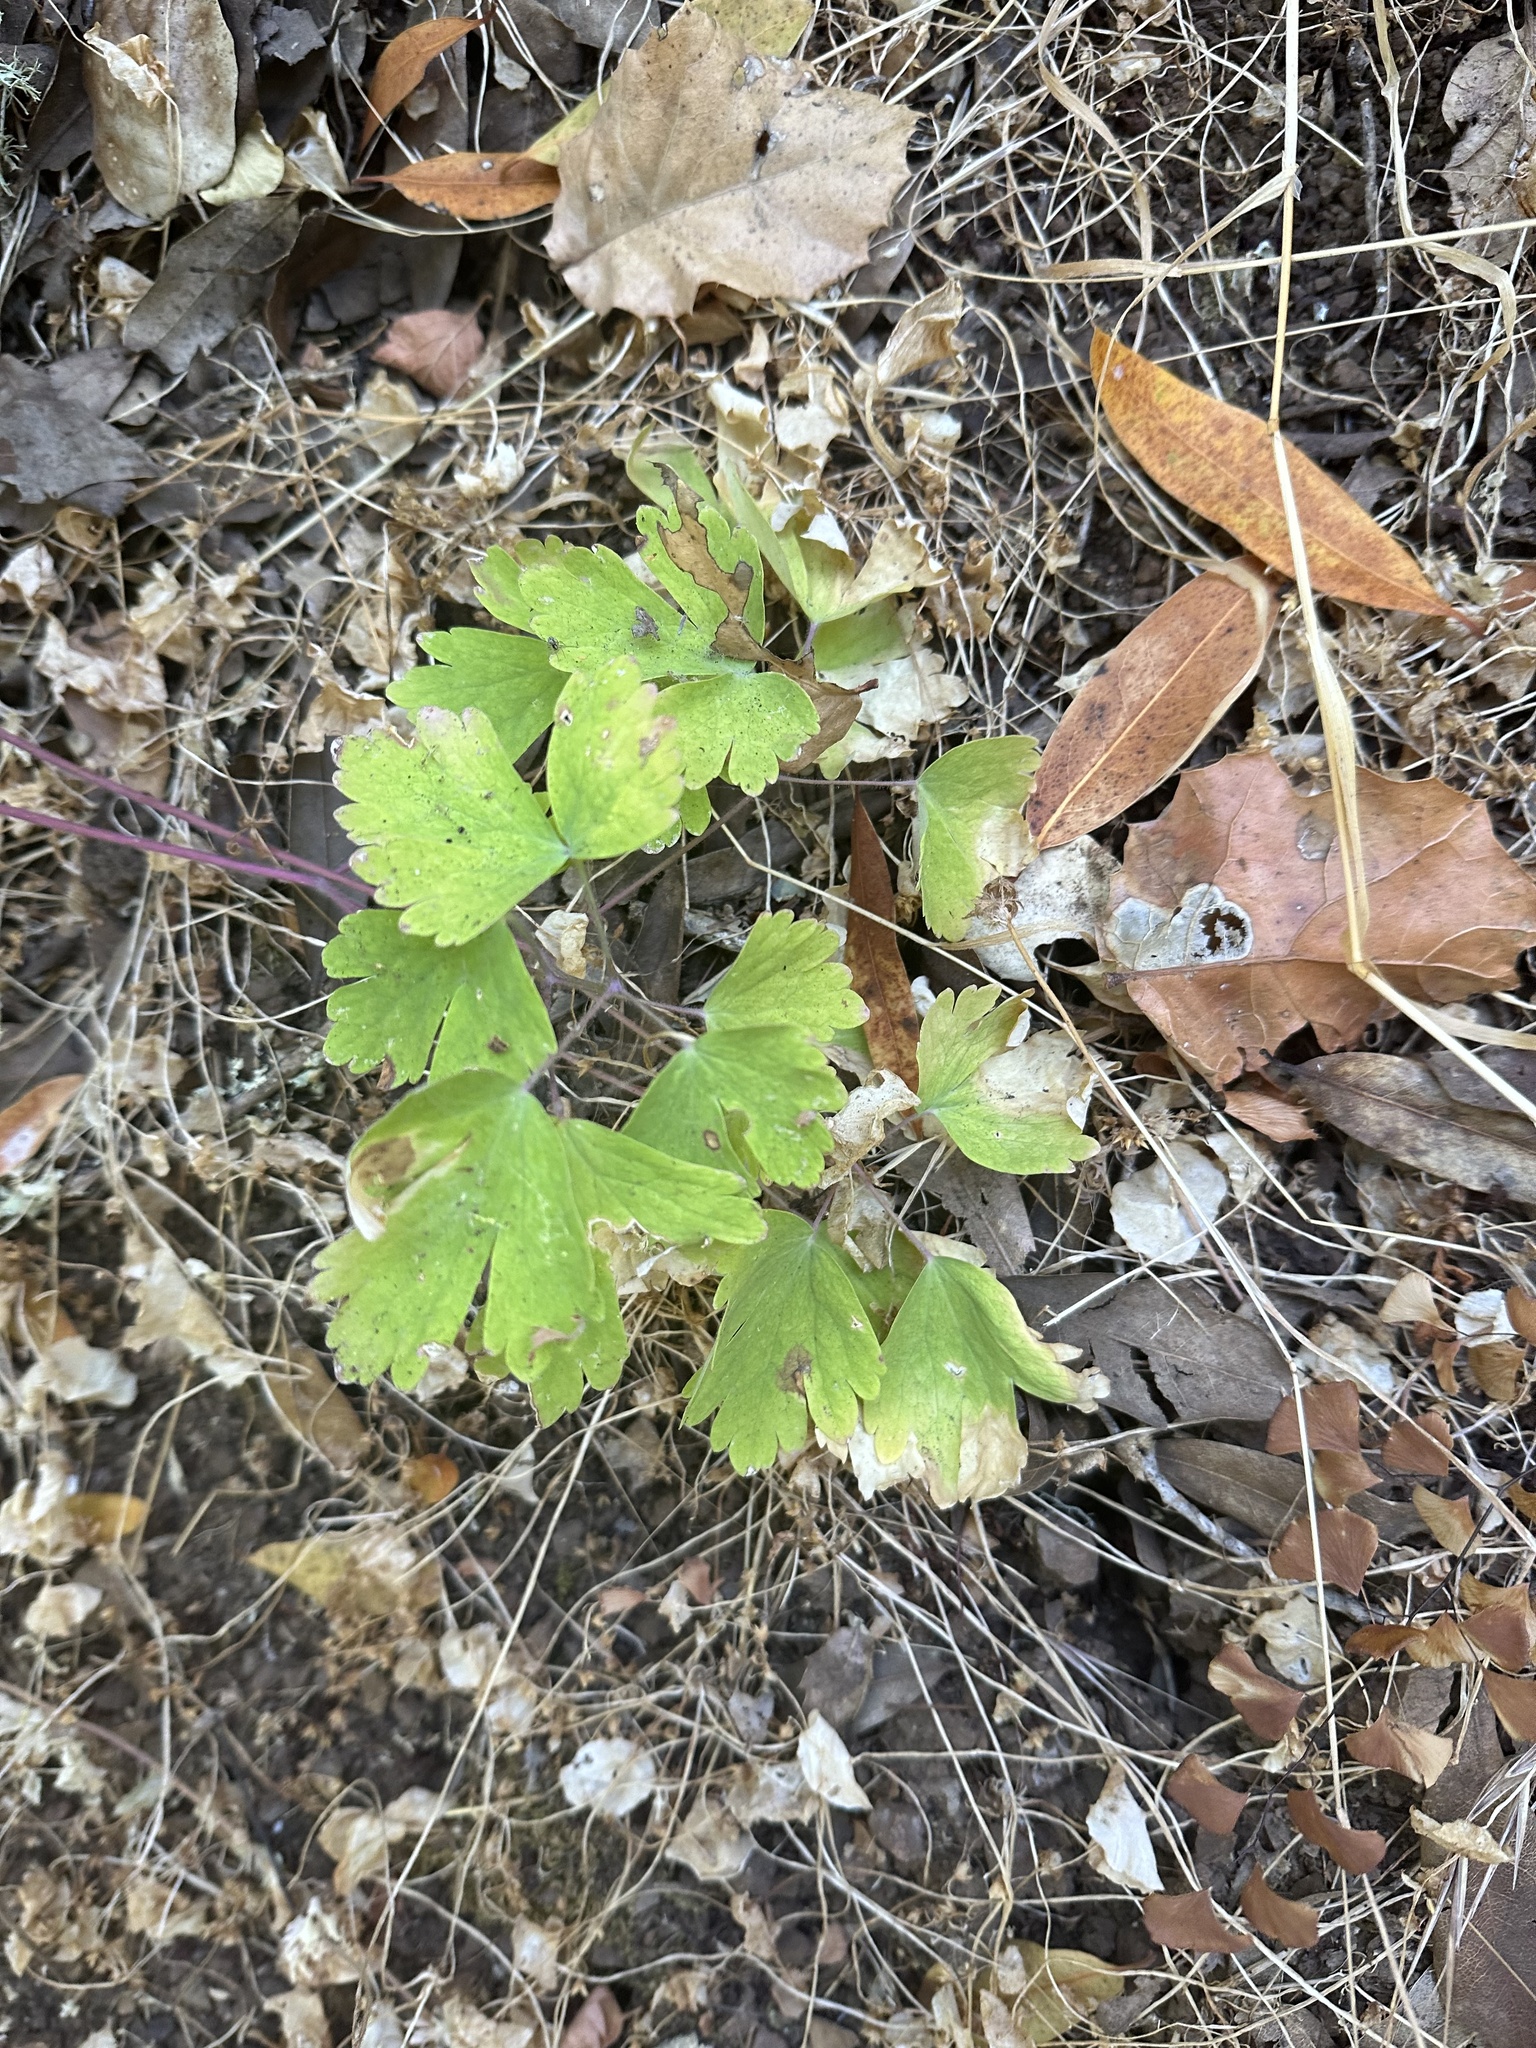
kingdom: Plantae
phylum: Tracheophyta
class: Magnoliopsida
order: Ranunculales
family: Ranunculaceae
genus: Aquilegia
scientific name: Aquilegia formosa
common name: Sitka columbine
